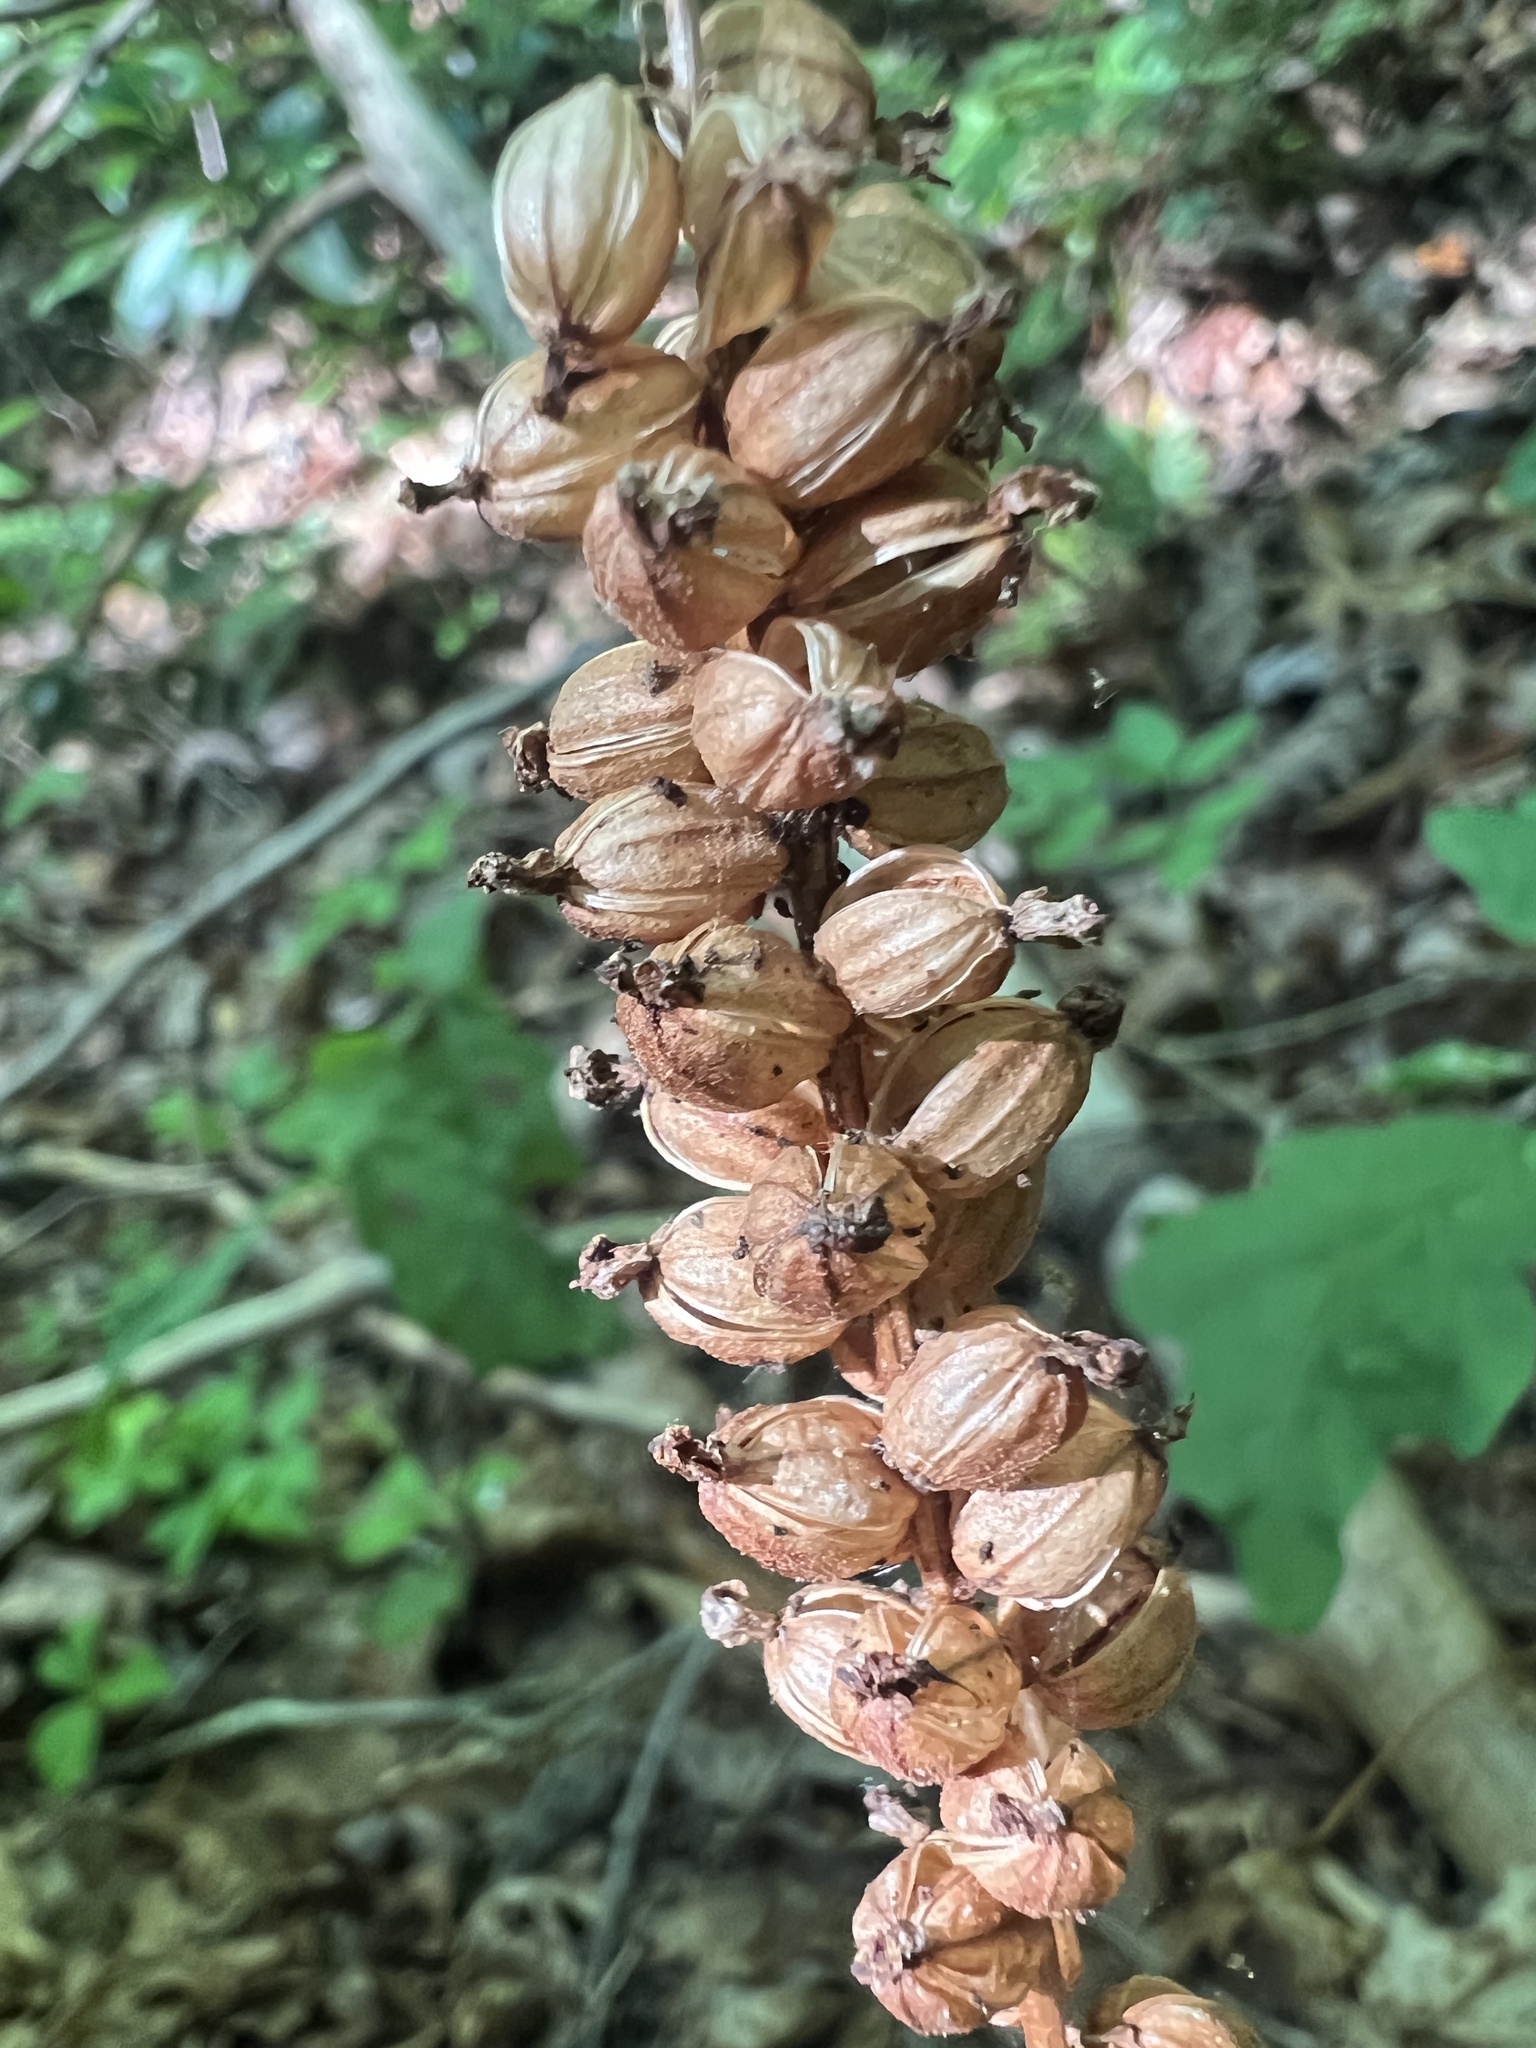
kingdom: Plantae
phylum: Tracheophyta
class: Liliopsida
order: Asparagales
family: Orchidaceae
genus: Goodyera
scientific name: Goodyera pubescens
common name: Downy rattlesnake-plantain
